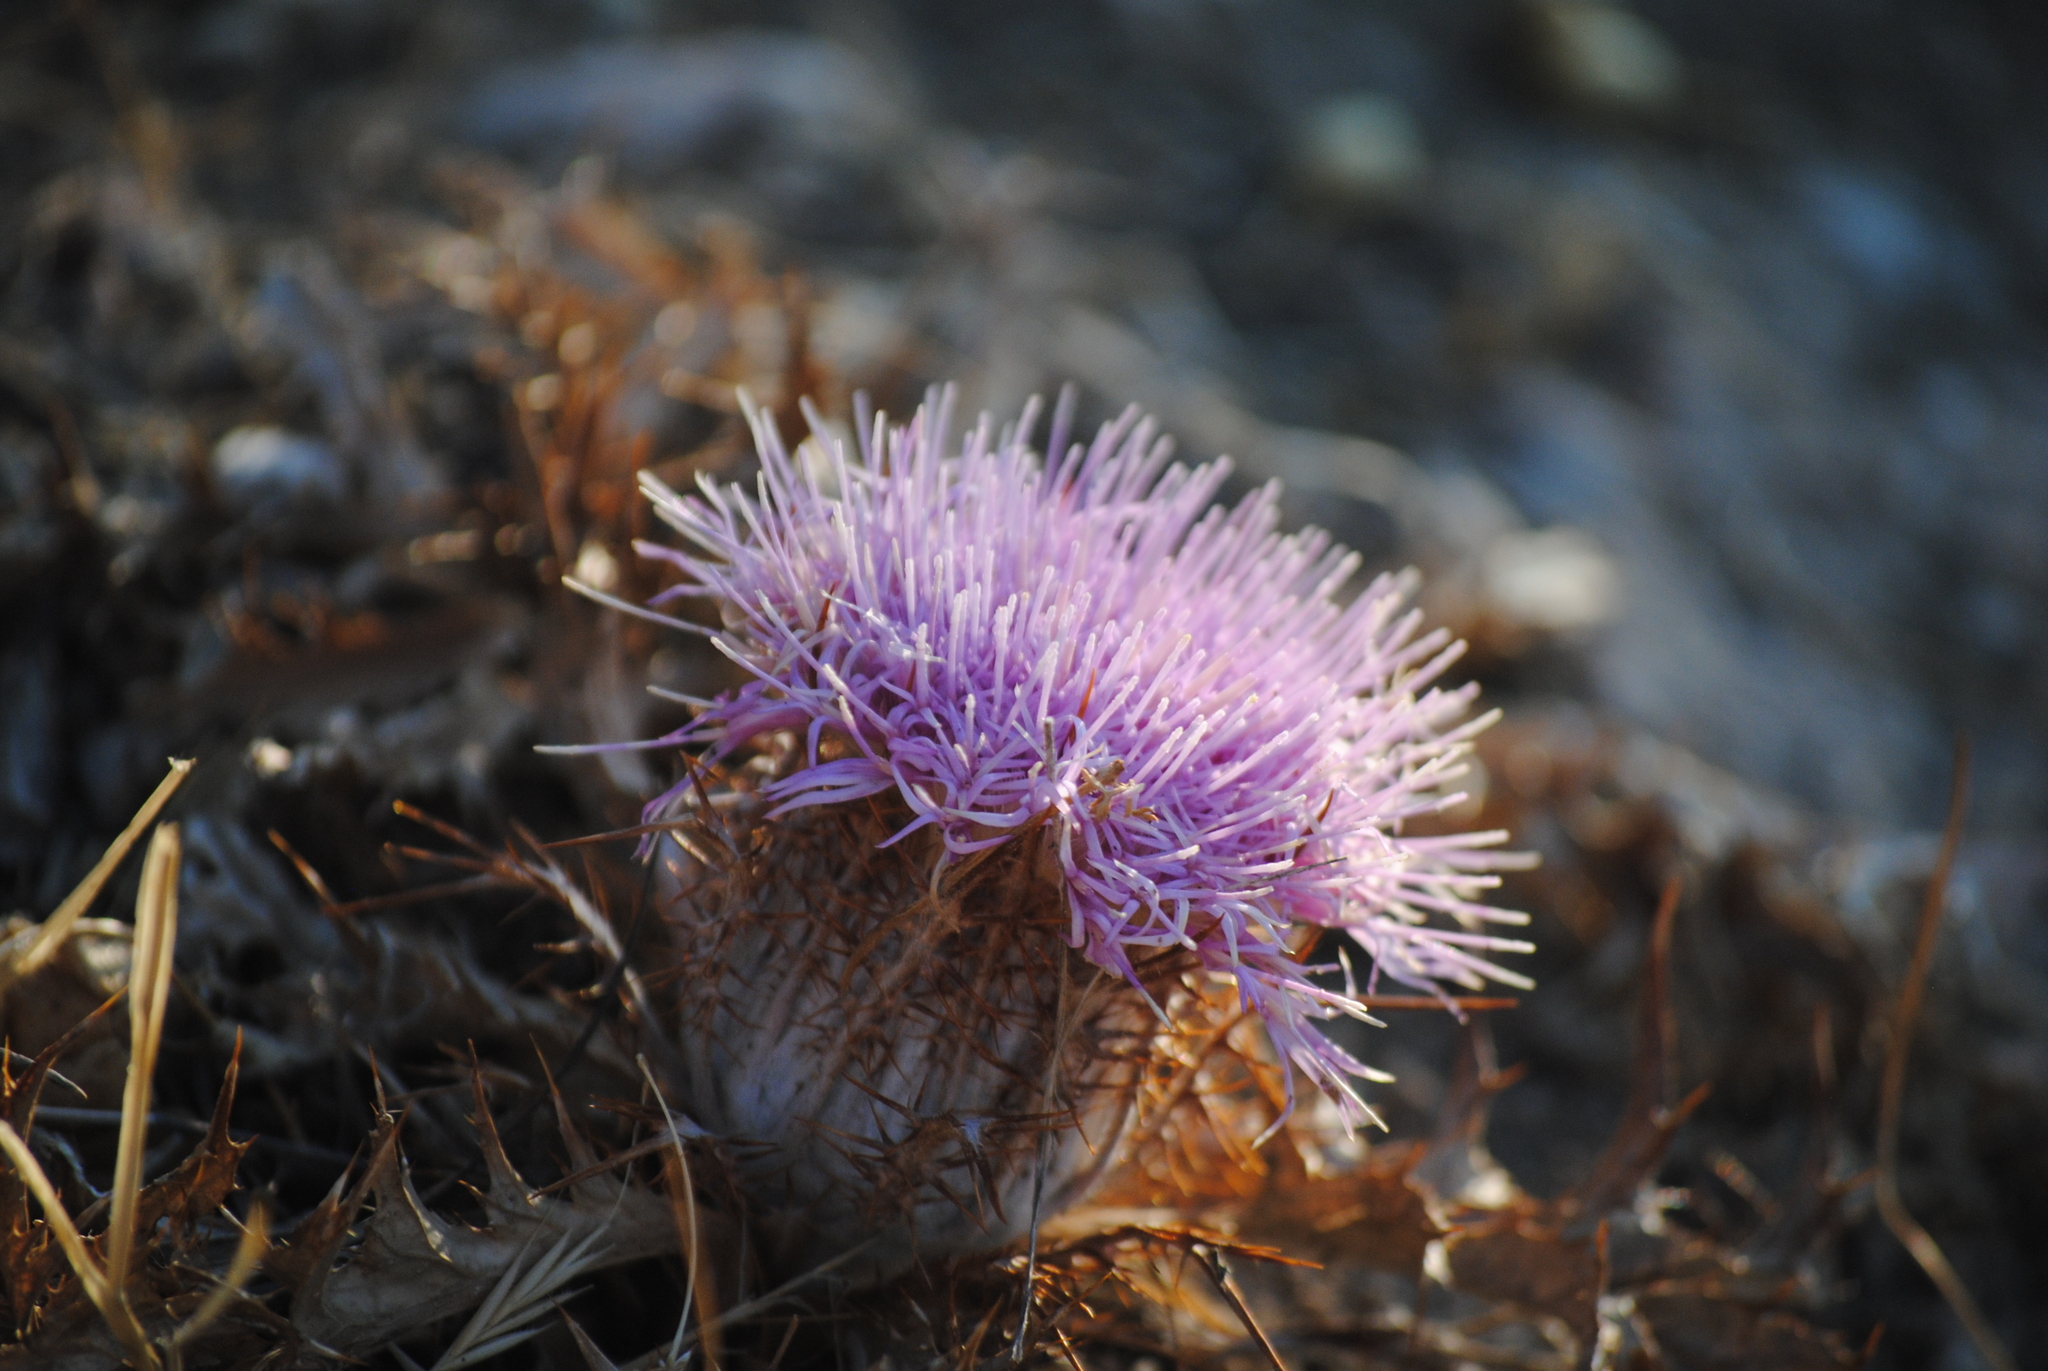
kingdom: Plantae
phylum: Tracheophyta
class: Magnoliopsida
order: Asterales
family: Asteraceae
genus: Chamaeleon
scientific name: Chamaeleon gummifer
